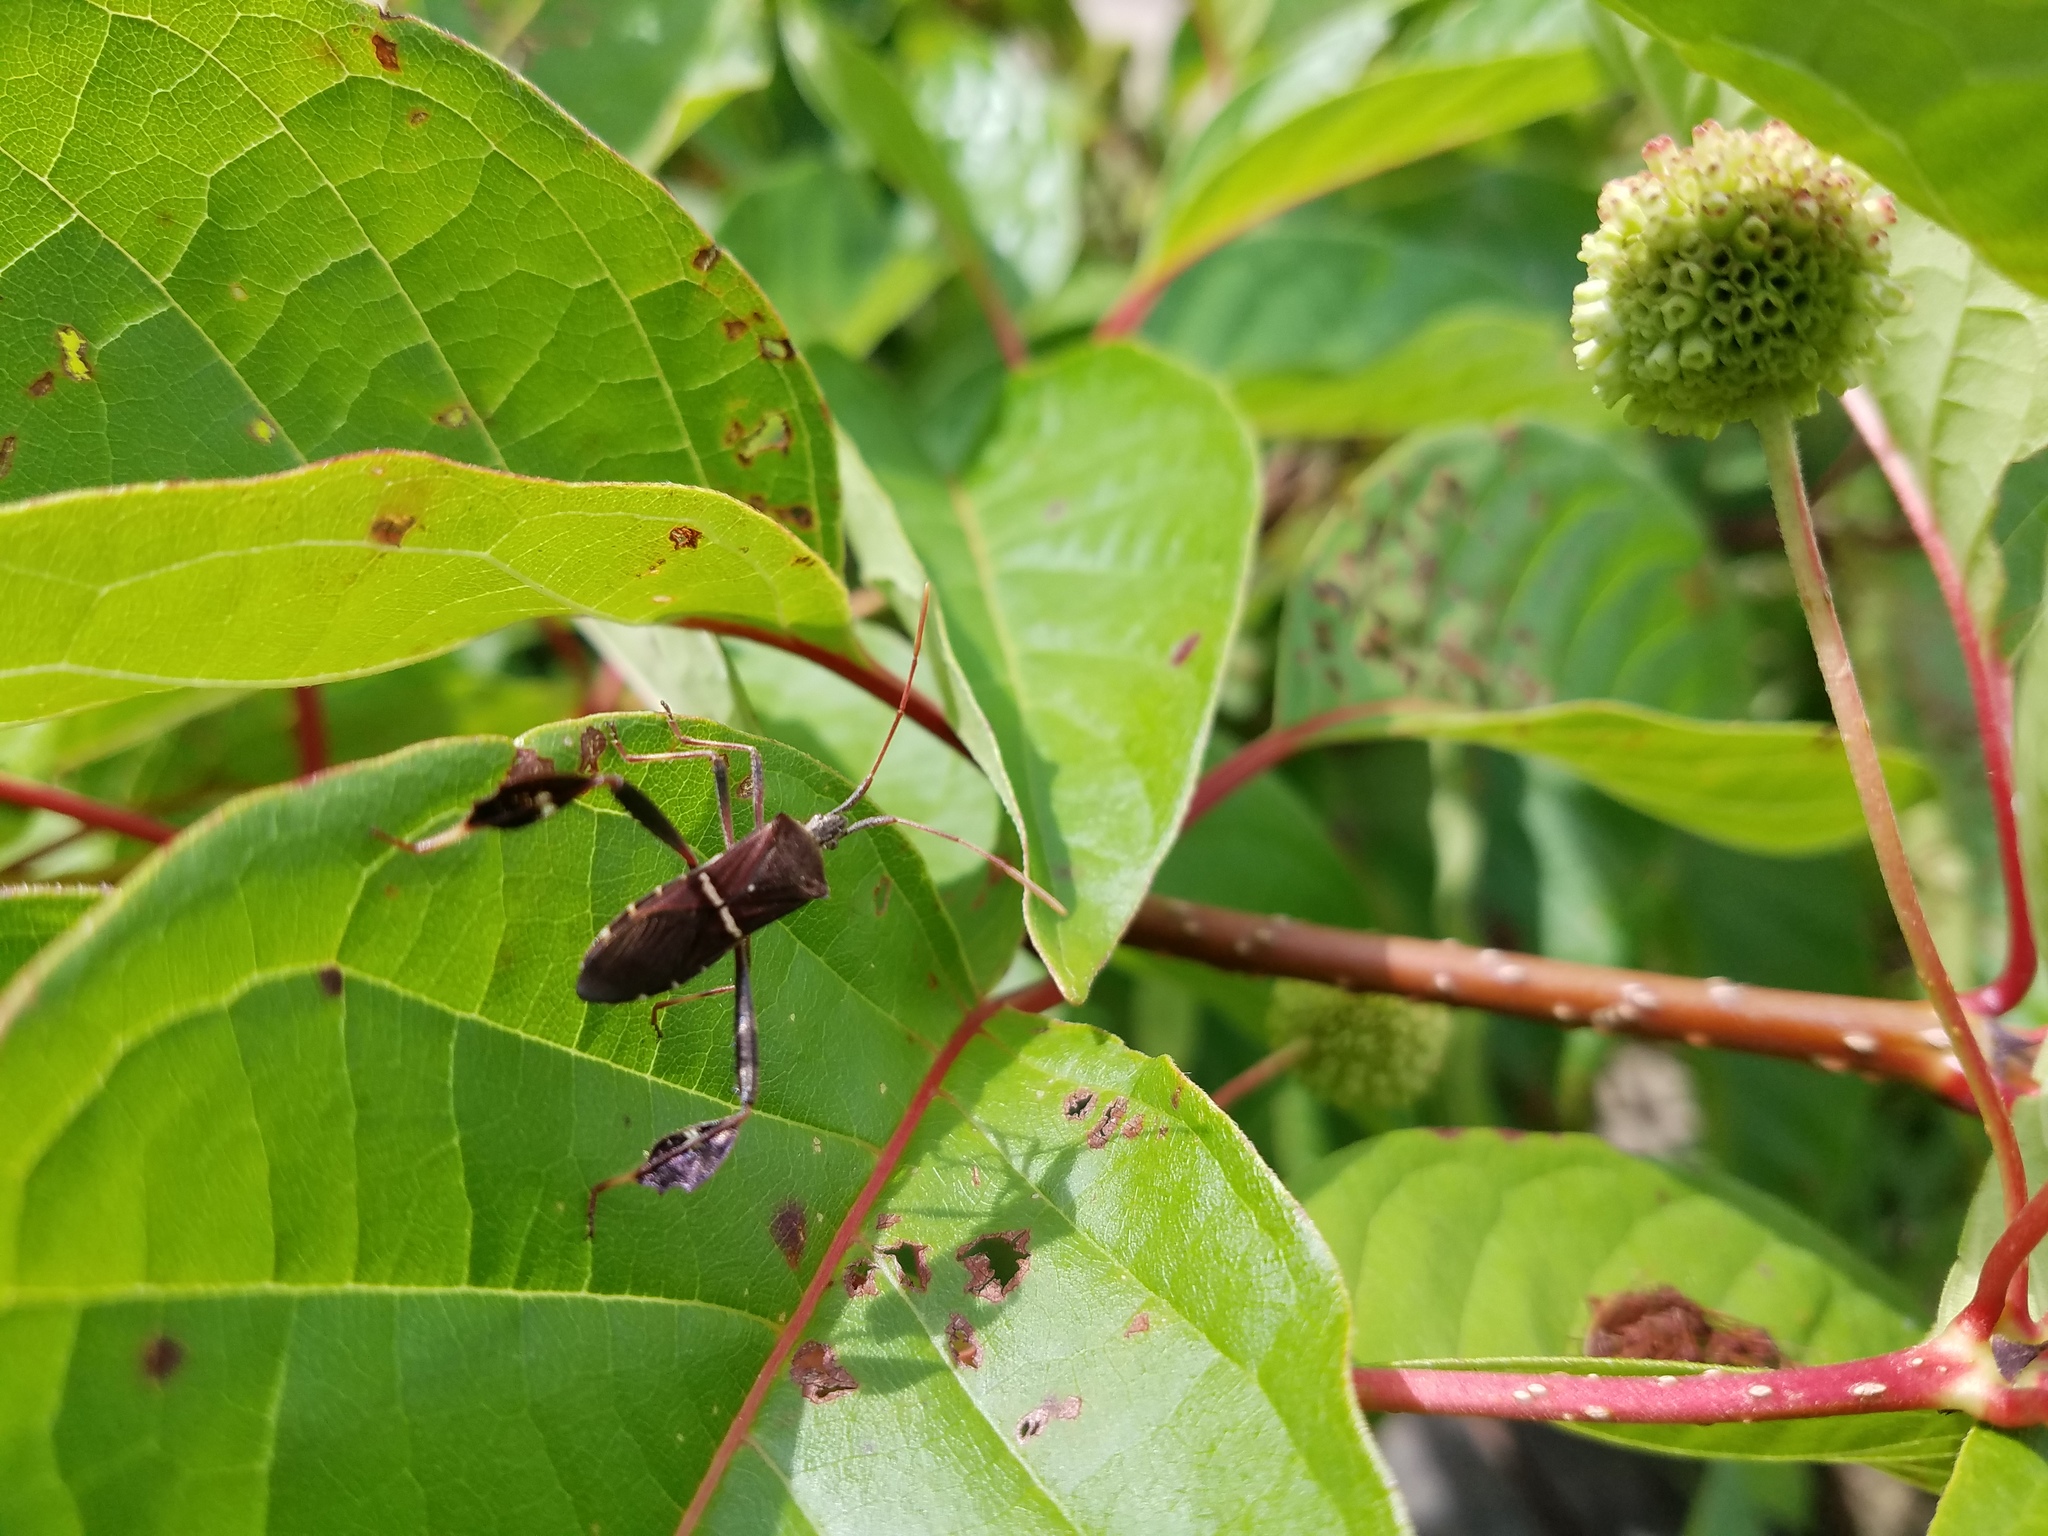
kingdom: Animalia
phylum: Arthropoda
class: Insecta
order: Hemiptera
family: Coreidae
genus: Leptoglossus
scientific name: Leptoglossus phyllopus
